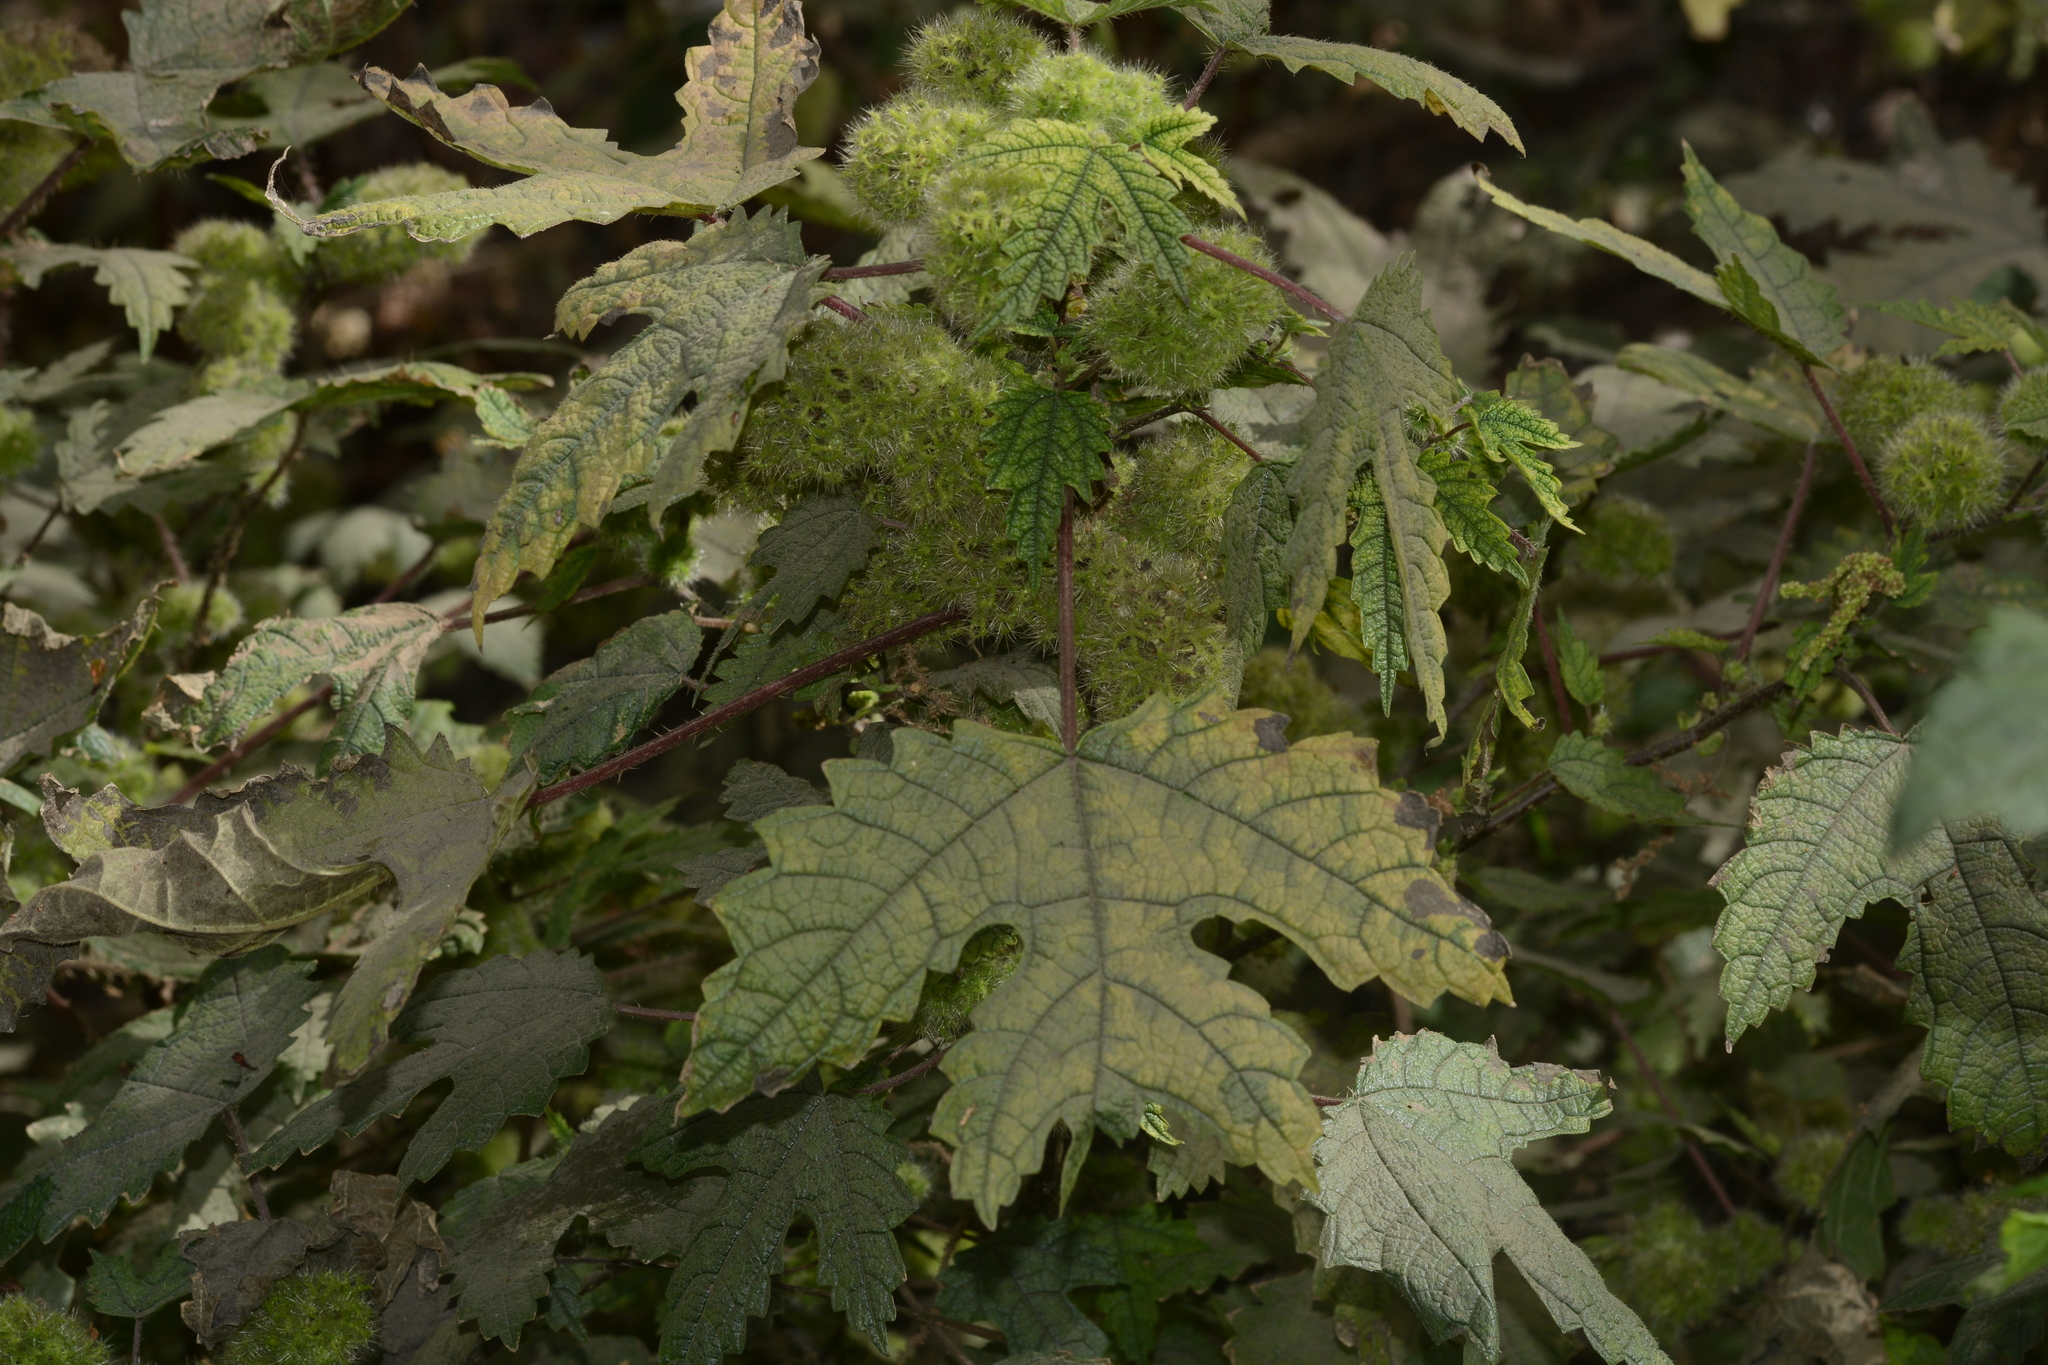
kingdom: Plantae
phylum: Tracheophyta
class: Magnoliopsida
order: Rosales
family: Urticaceae
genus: Girardinia
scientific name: Girardinia diversifolia
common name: Himalayan-nettle
